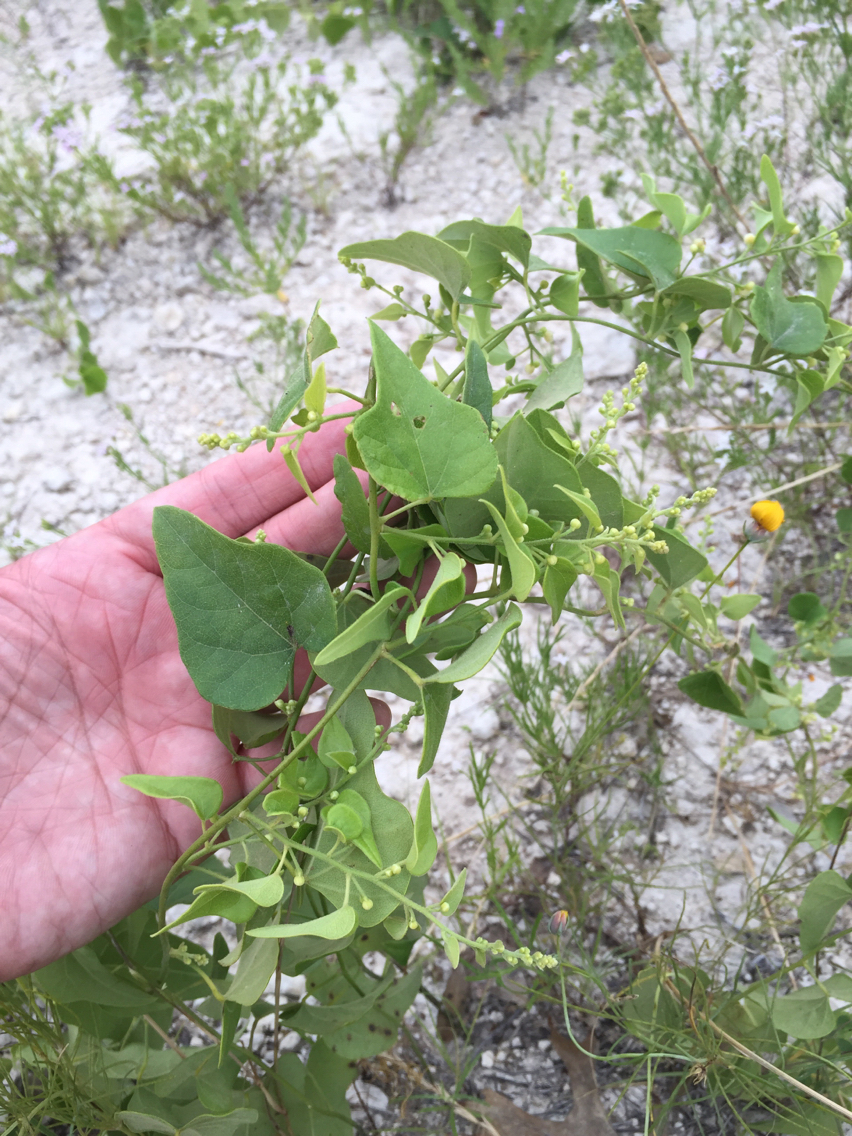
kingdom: Plantae
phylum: Tracheophyta
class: Magnoliopsida
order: Ranunculales
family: Menispermaceae
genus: Cocculus
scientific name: Cocculus carolinus
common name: Carolina moonseed
